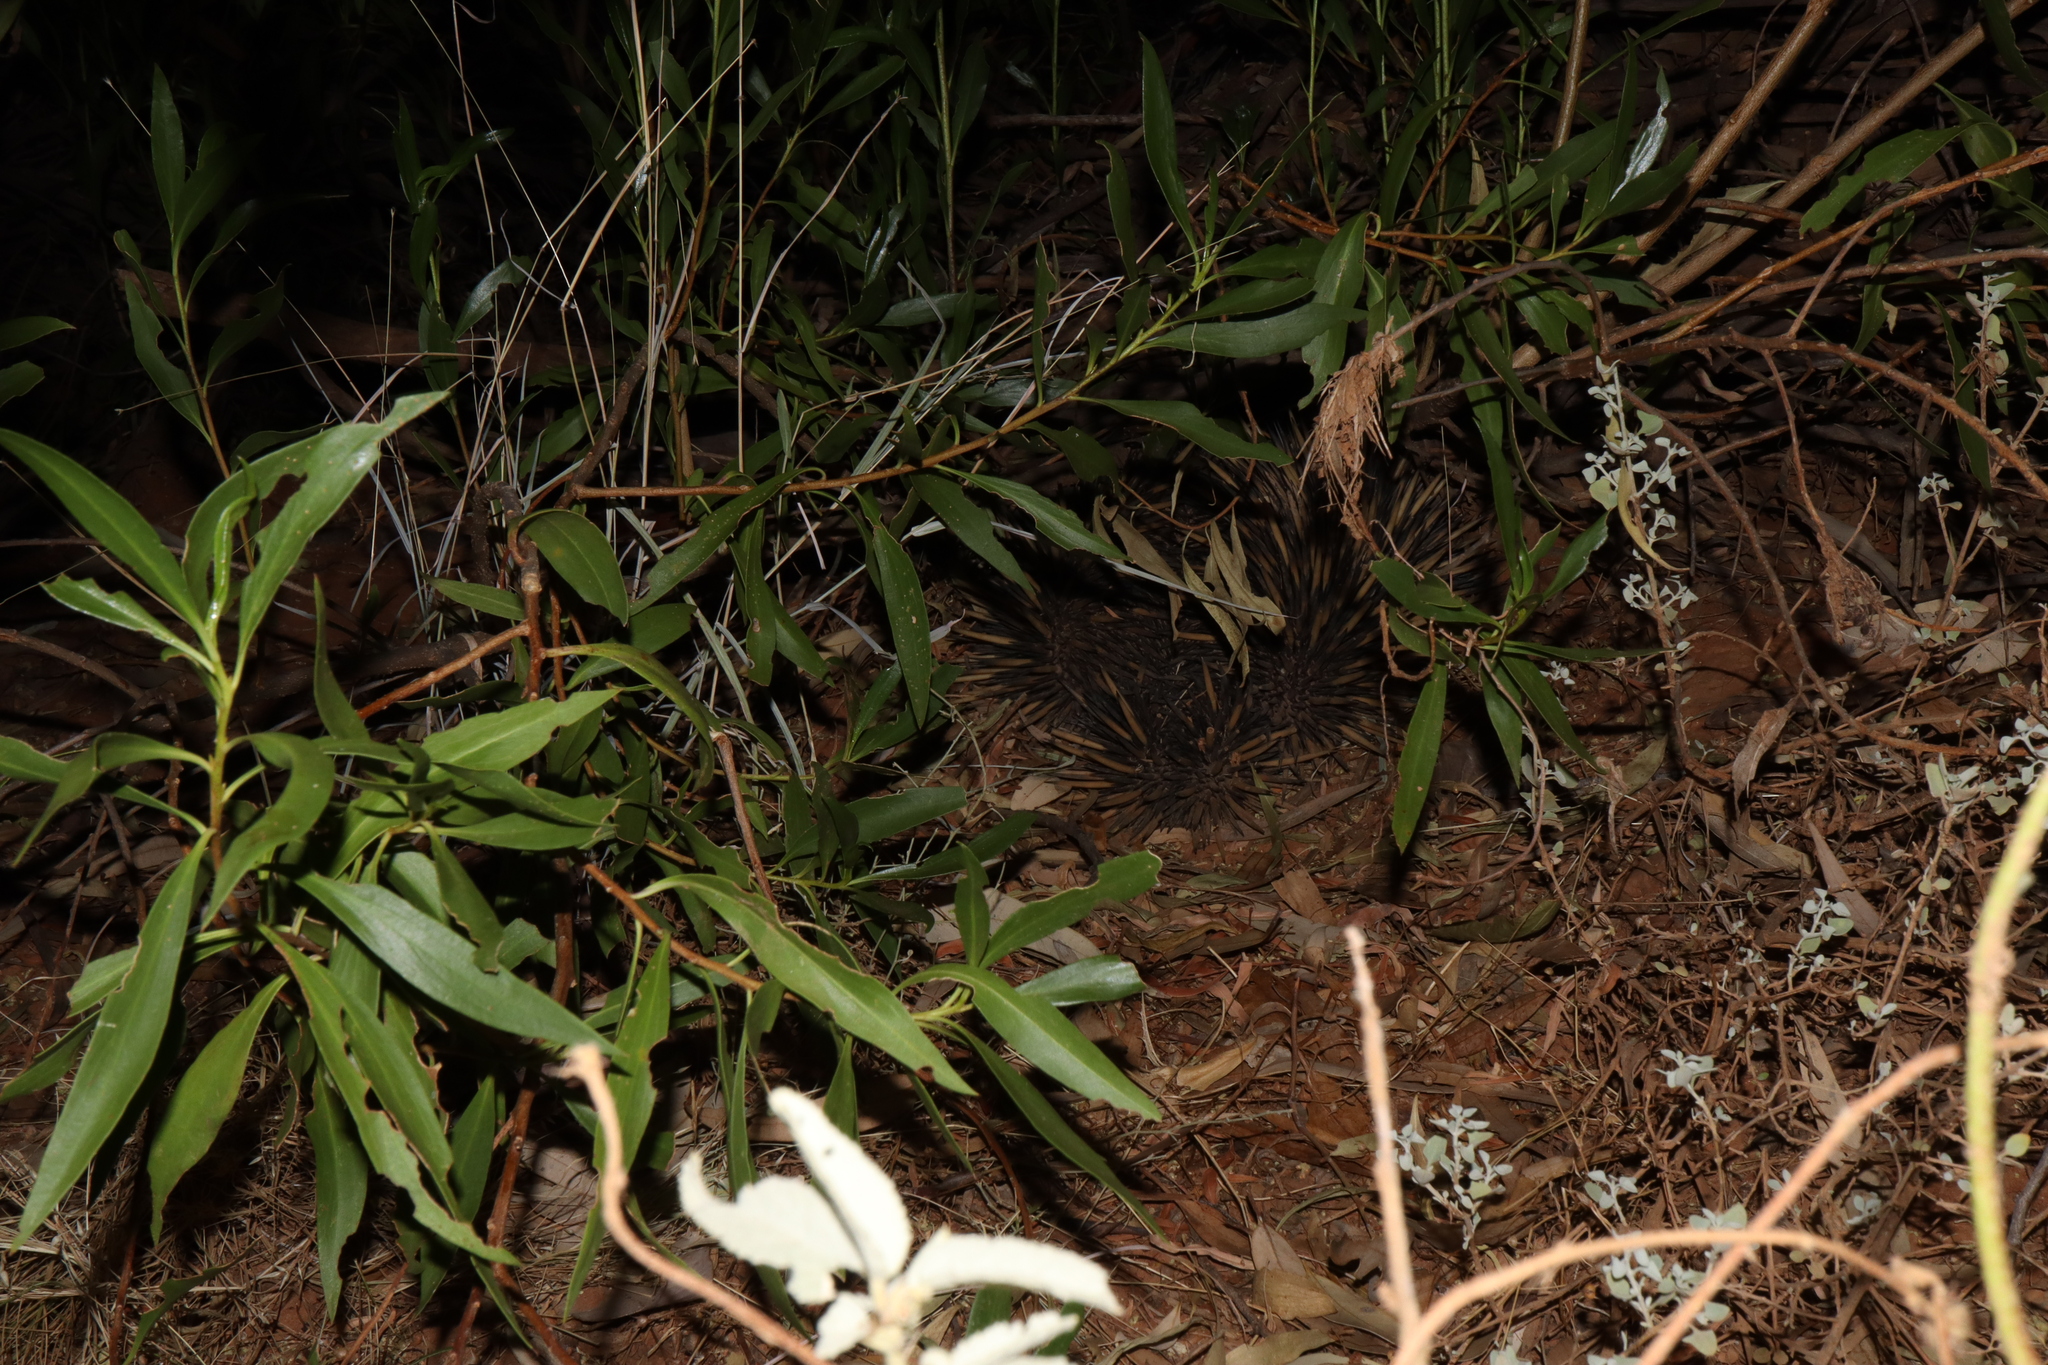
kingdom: Animalia
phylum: Chordata
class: Mammalia
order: Monotremata
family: Tachyglossidae
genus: Tachyglossus
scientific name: Tachyglossus aculeatus
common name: Short-beaked echidna
